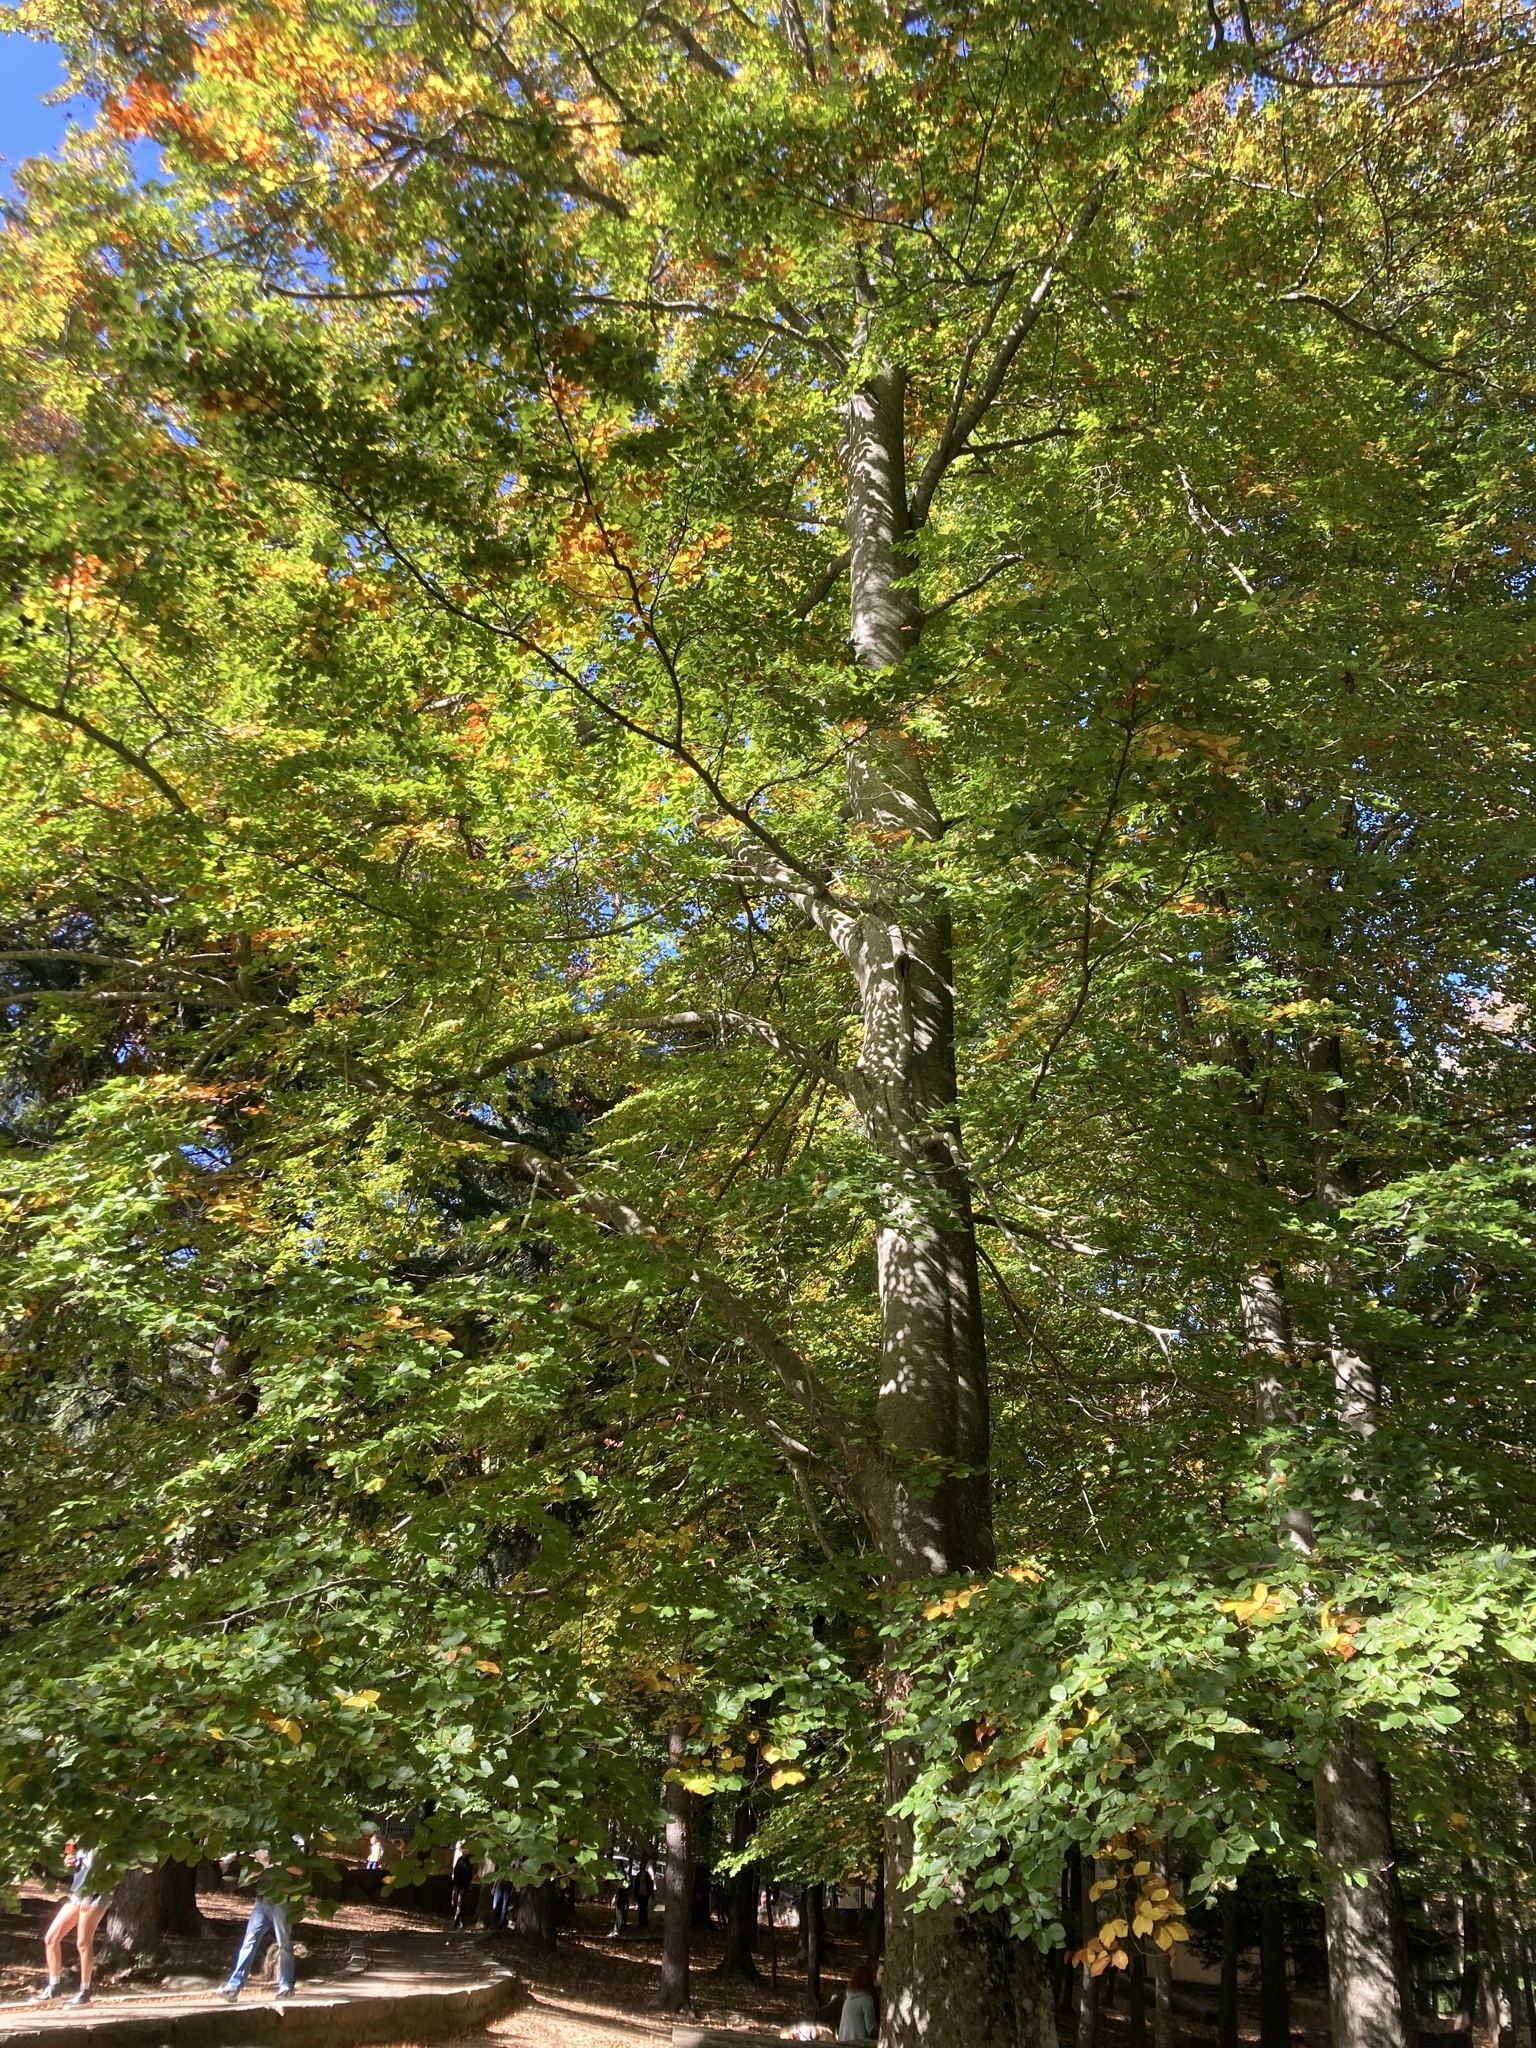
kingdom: Plantae
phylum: Tracheophyta
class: Magnoliopsida
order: Fagales
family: Fagaceae
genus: Fagus
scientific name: Fagus sylvatica
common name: Beech
